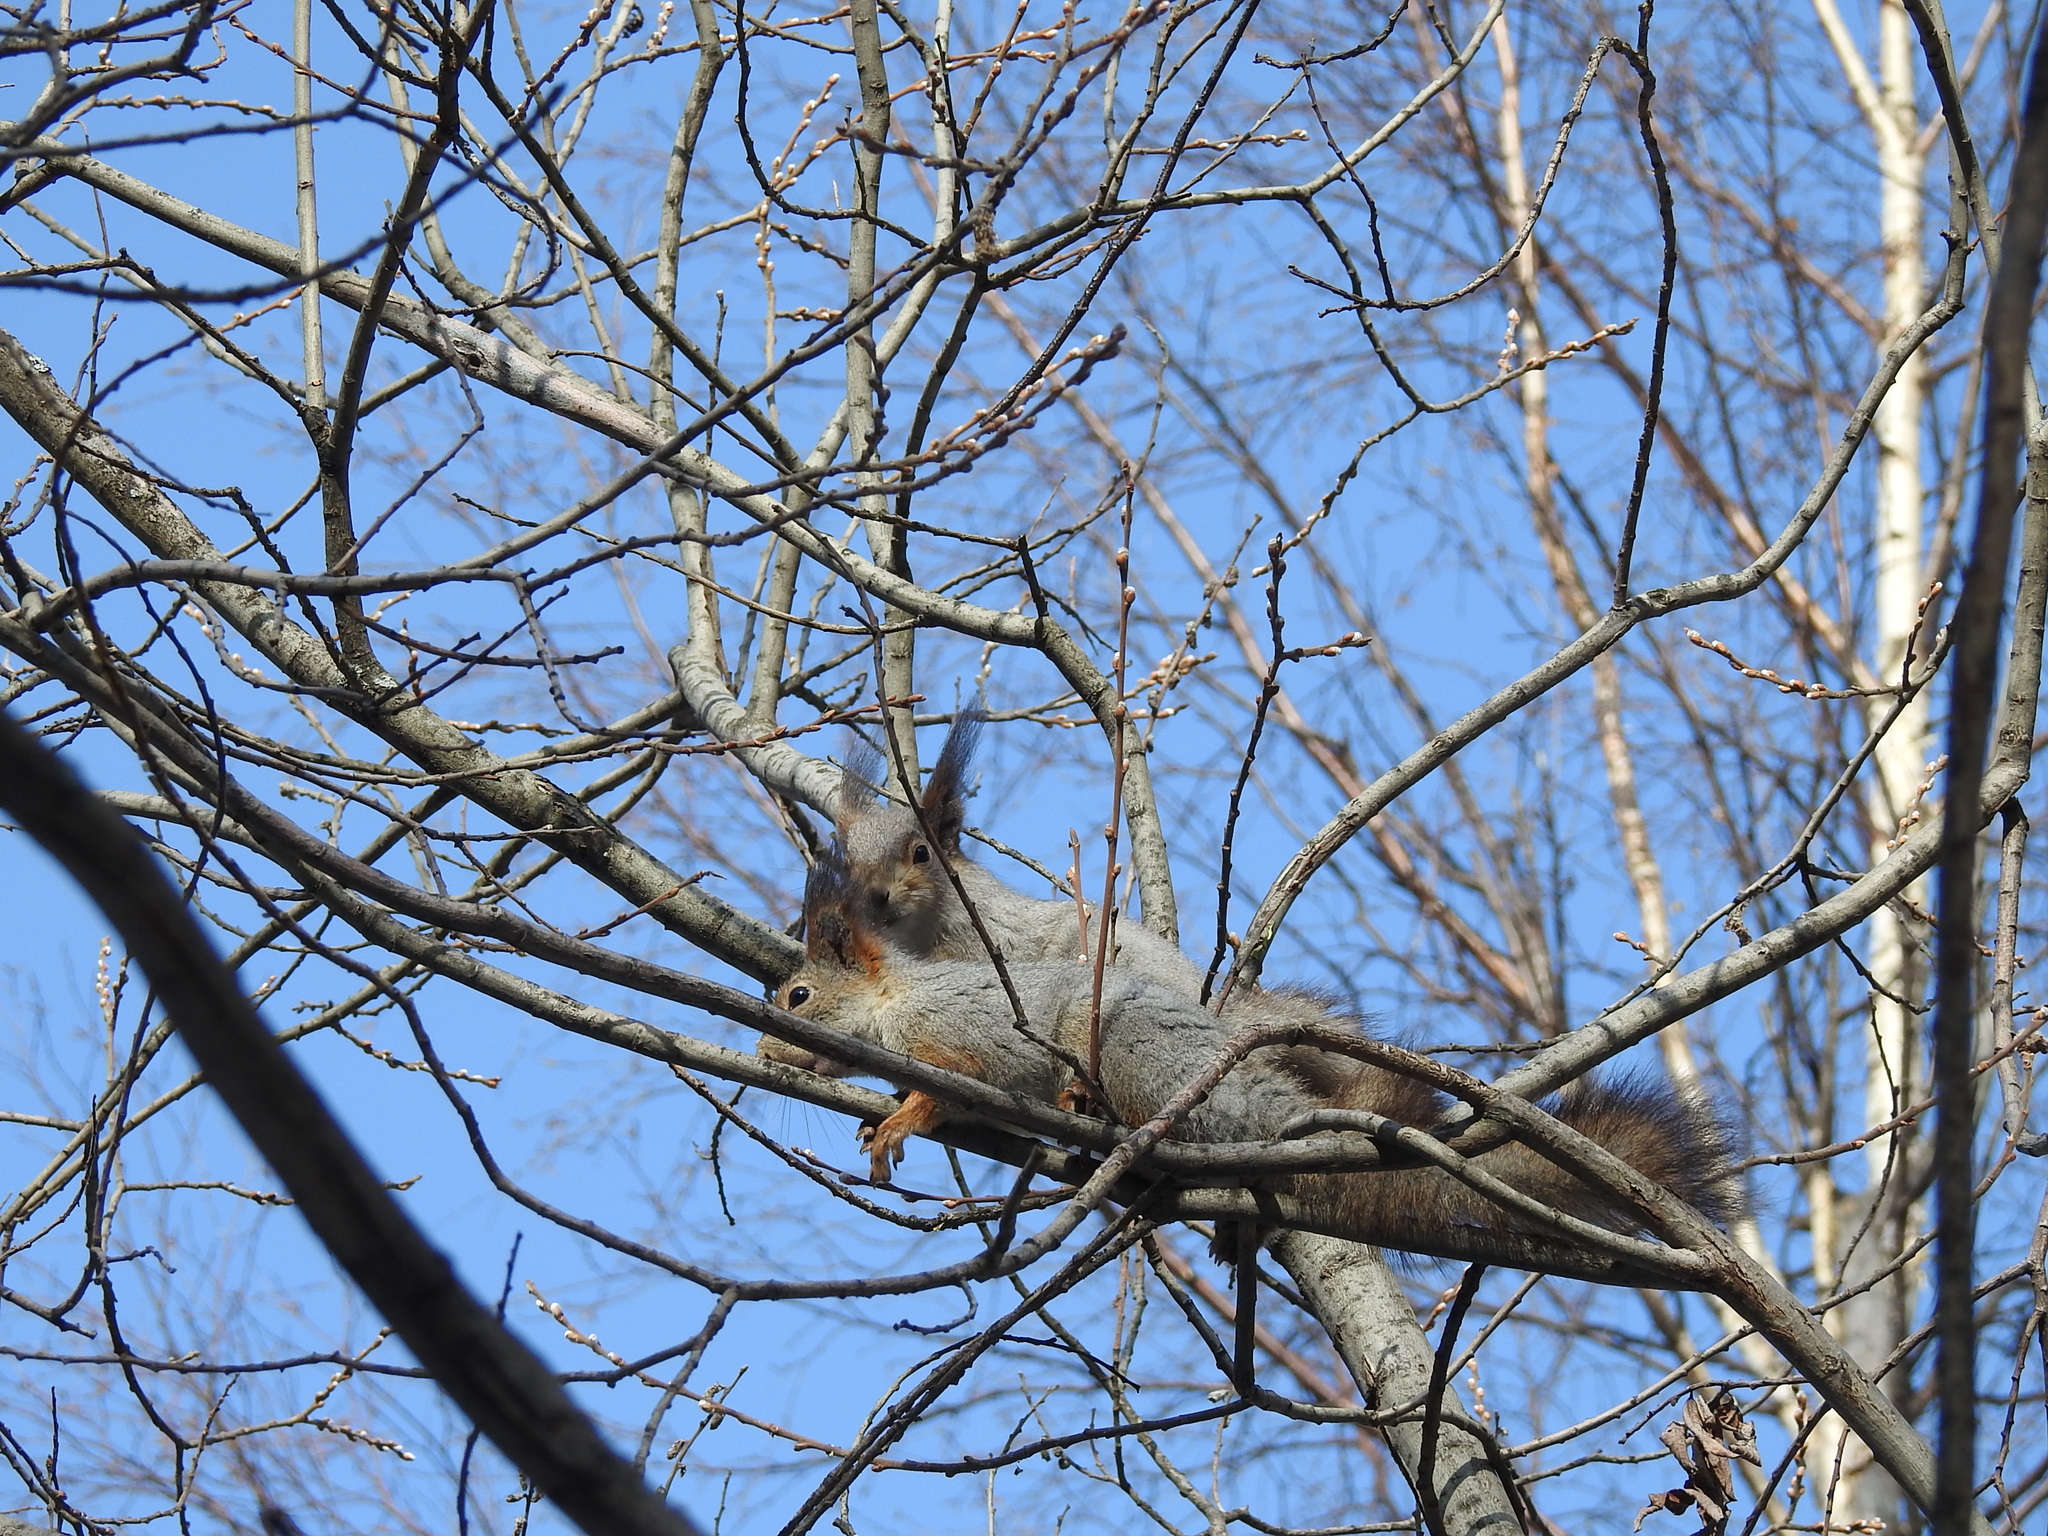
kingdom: Animalia
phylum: Chordata
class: Mammalia
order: Rodentia
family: Sciuridae
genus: Sciurus
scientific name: Sciurus vulgaris
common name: Eurasian red squirrel
